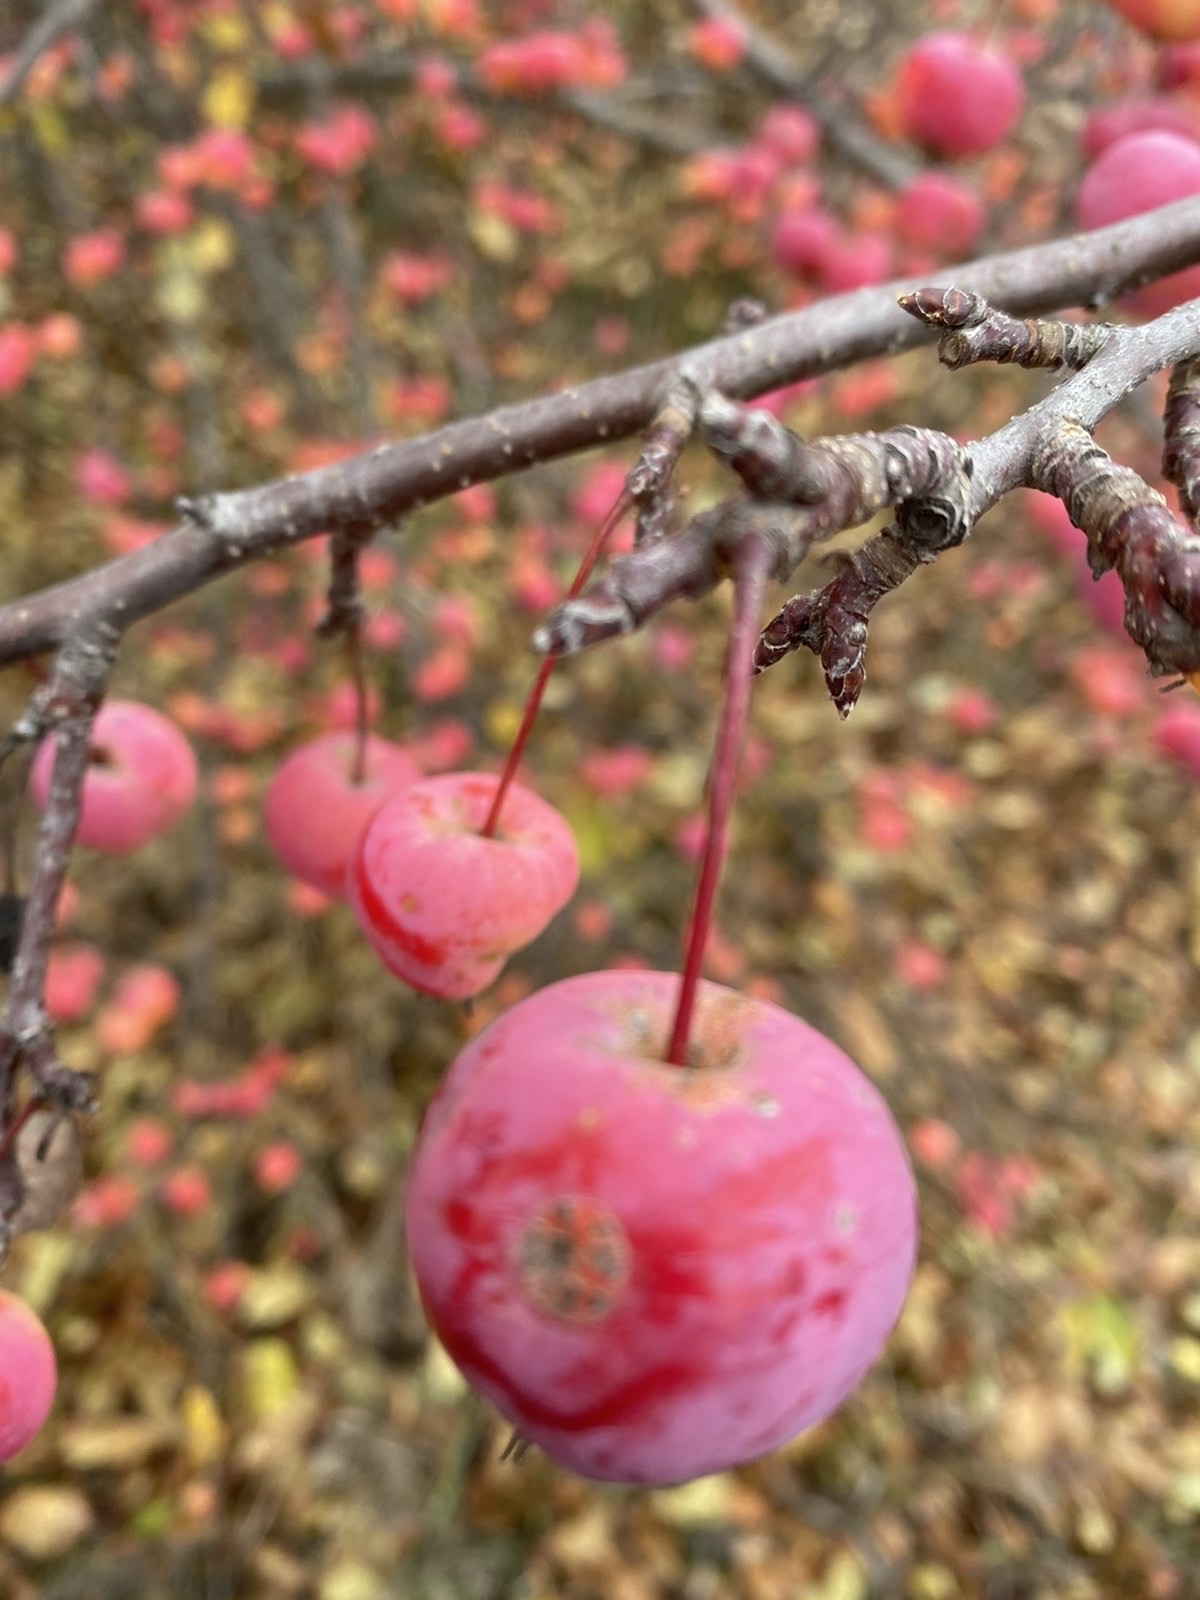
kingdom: Plantae
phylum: Tracheophyta
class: Magnoliopsida
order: Rosales
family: Rosaceae
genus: Malus
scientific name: Malus baccata
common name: Siberian crab
